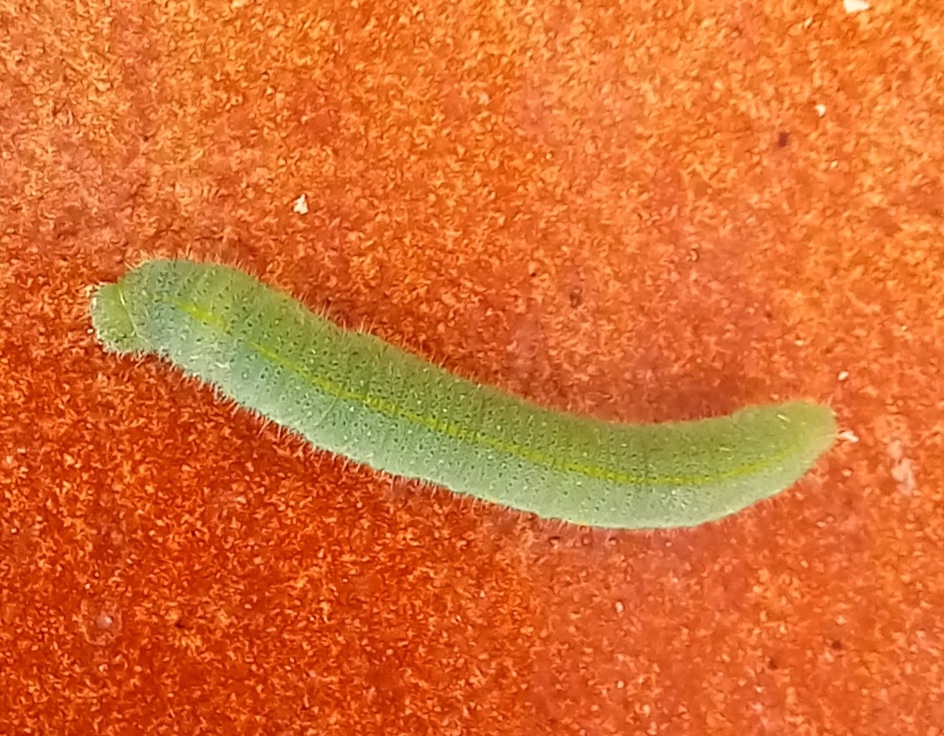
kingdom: Animalia
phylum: Arthropoda
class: Insecta
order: Lepidoptera
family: Pieridae
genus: Pieris
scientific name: Pieris rapae
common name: Small white
